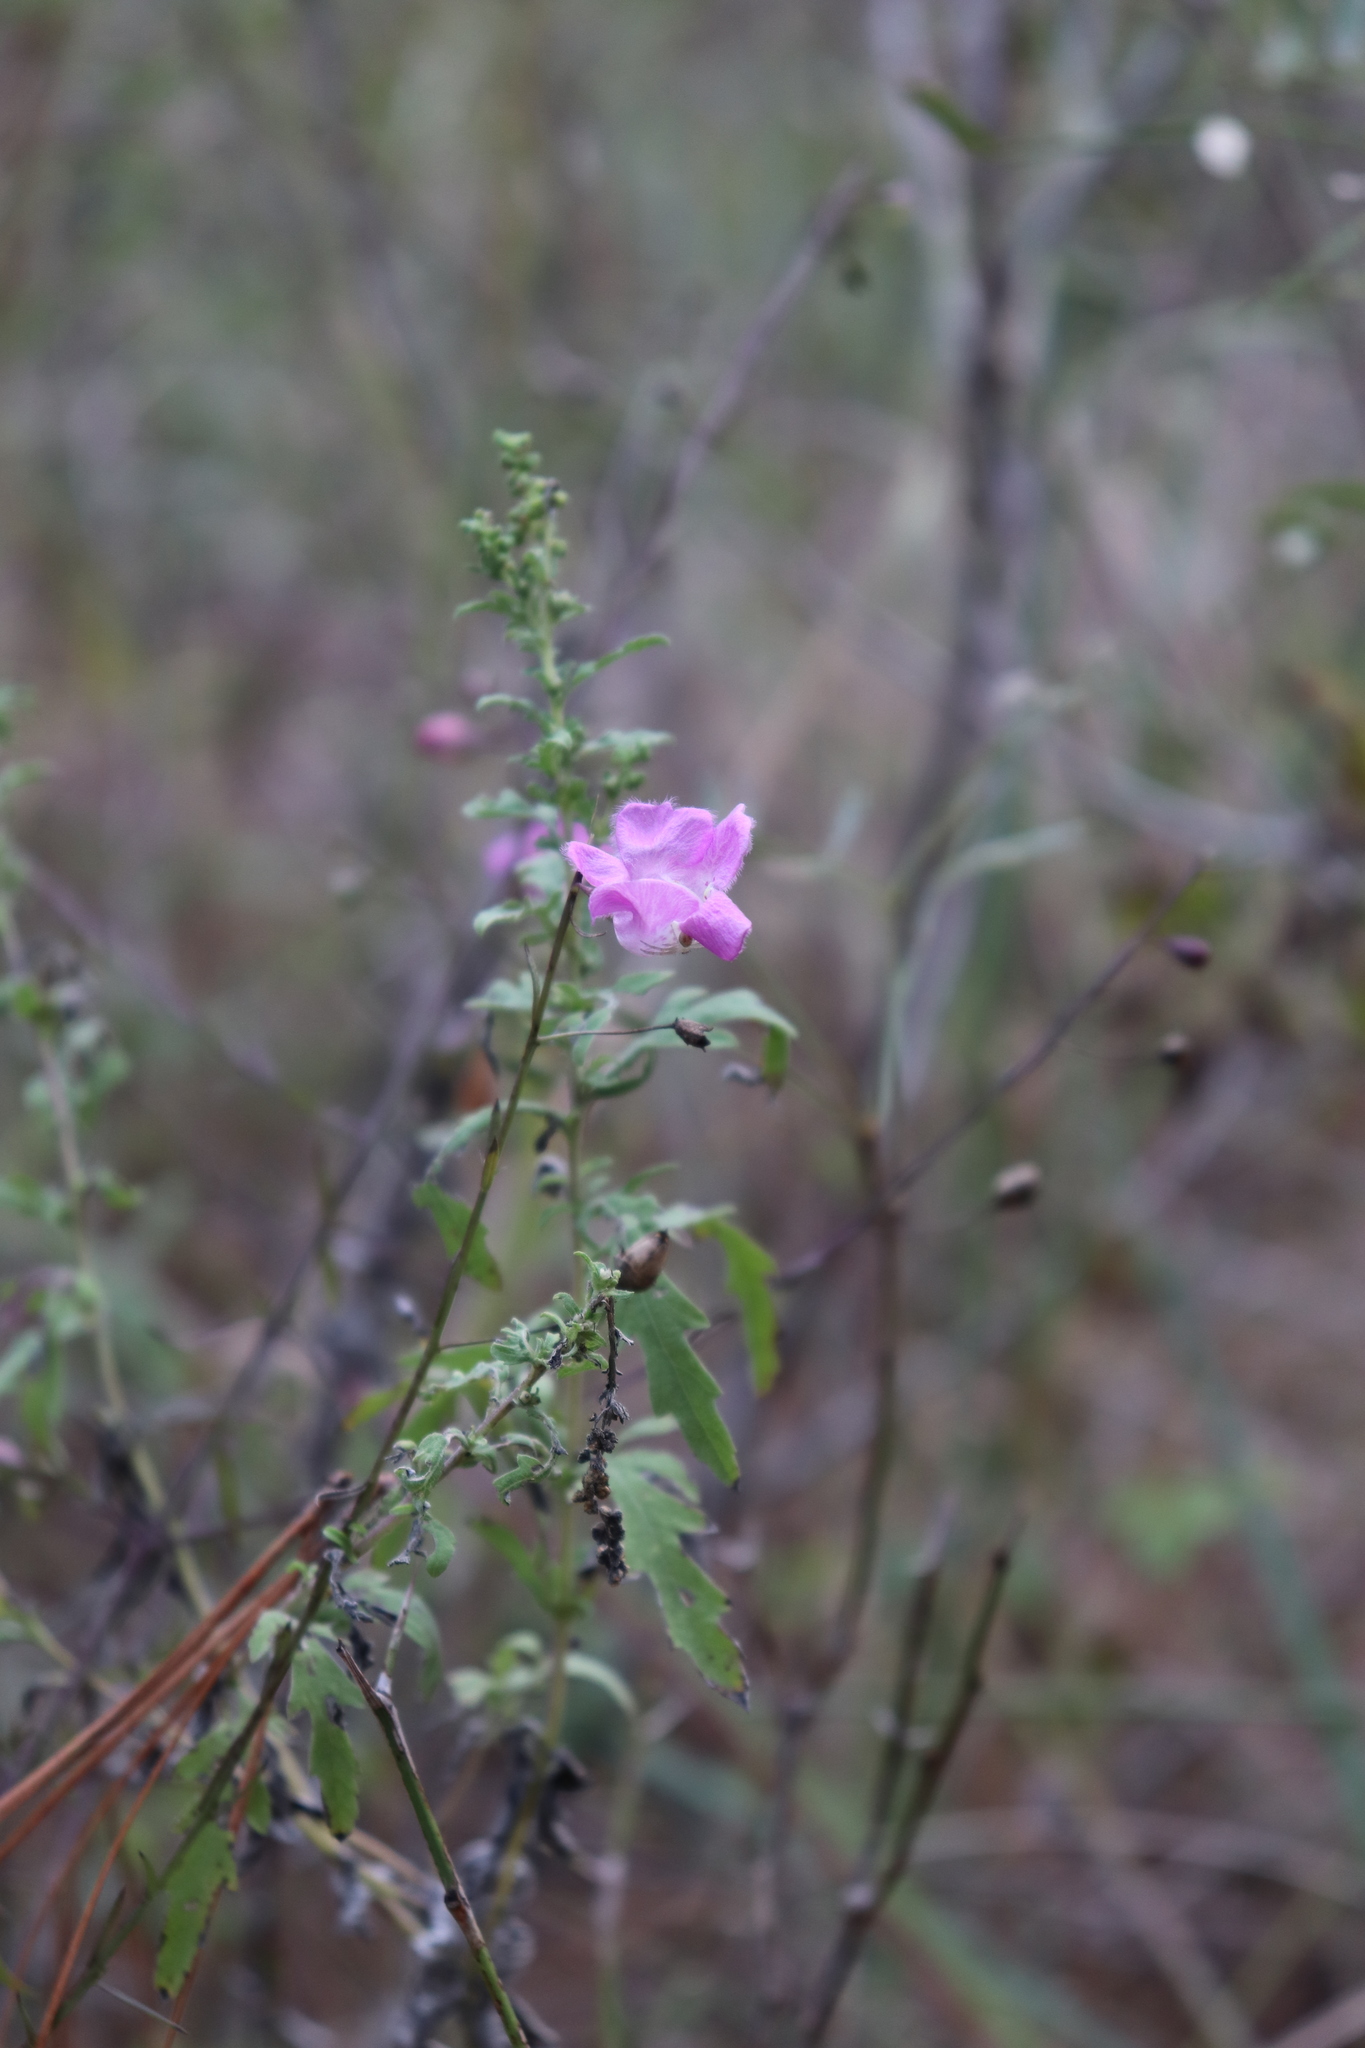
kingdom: Plantae
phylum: Tracheophyta
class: Magnoliopsida
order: Lamiales
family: Orobanchaceae
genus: Agalinis
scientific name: Agalinis strictifolia
